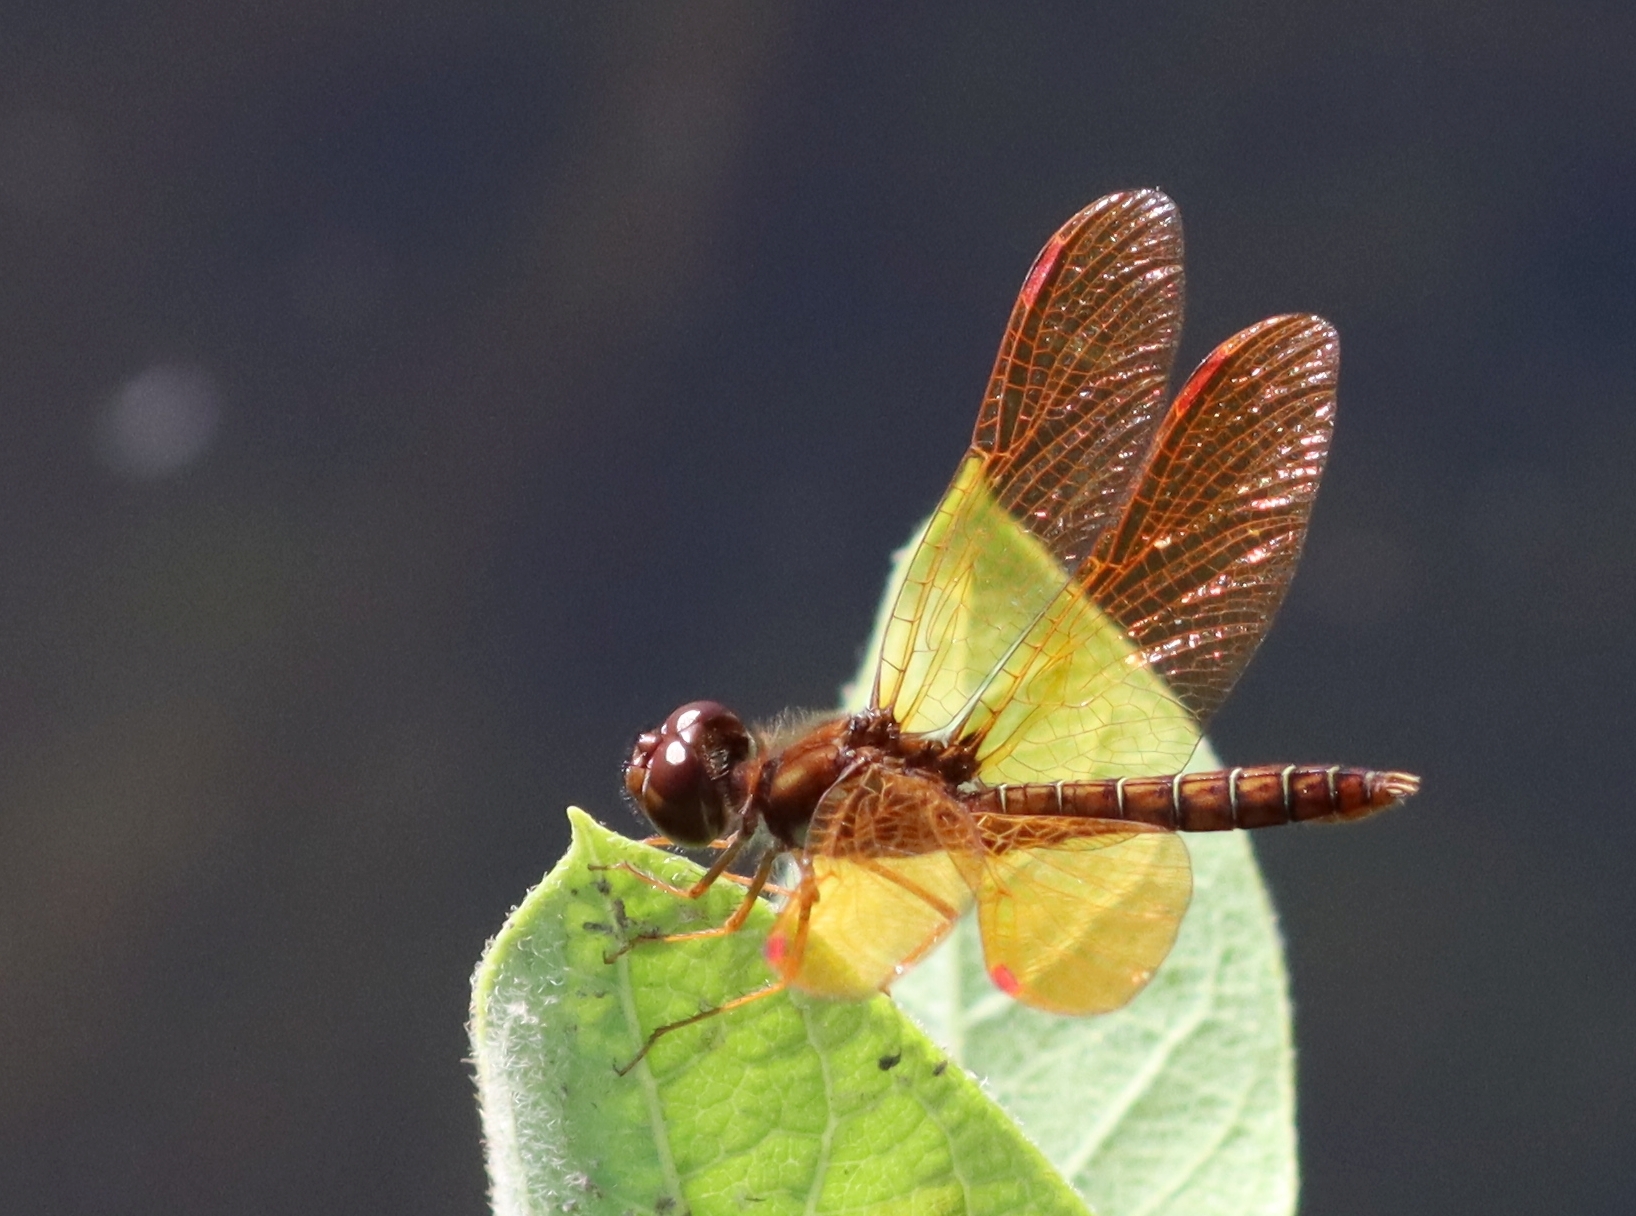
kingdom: Animalia
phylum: Arthropoda
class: Insecta
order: Odonata
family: Libellulidae
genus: Perithemis
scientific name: Perithemis tenera
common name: Eastern amberwing
